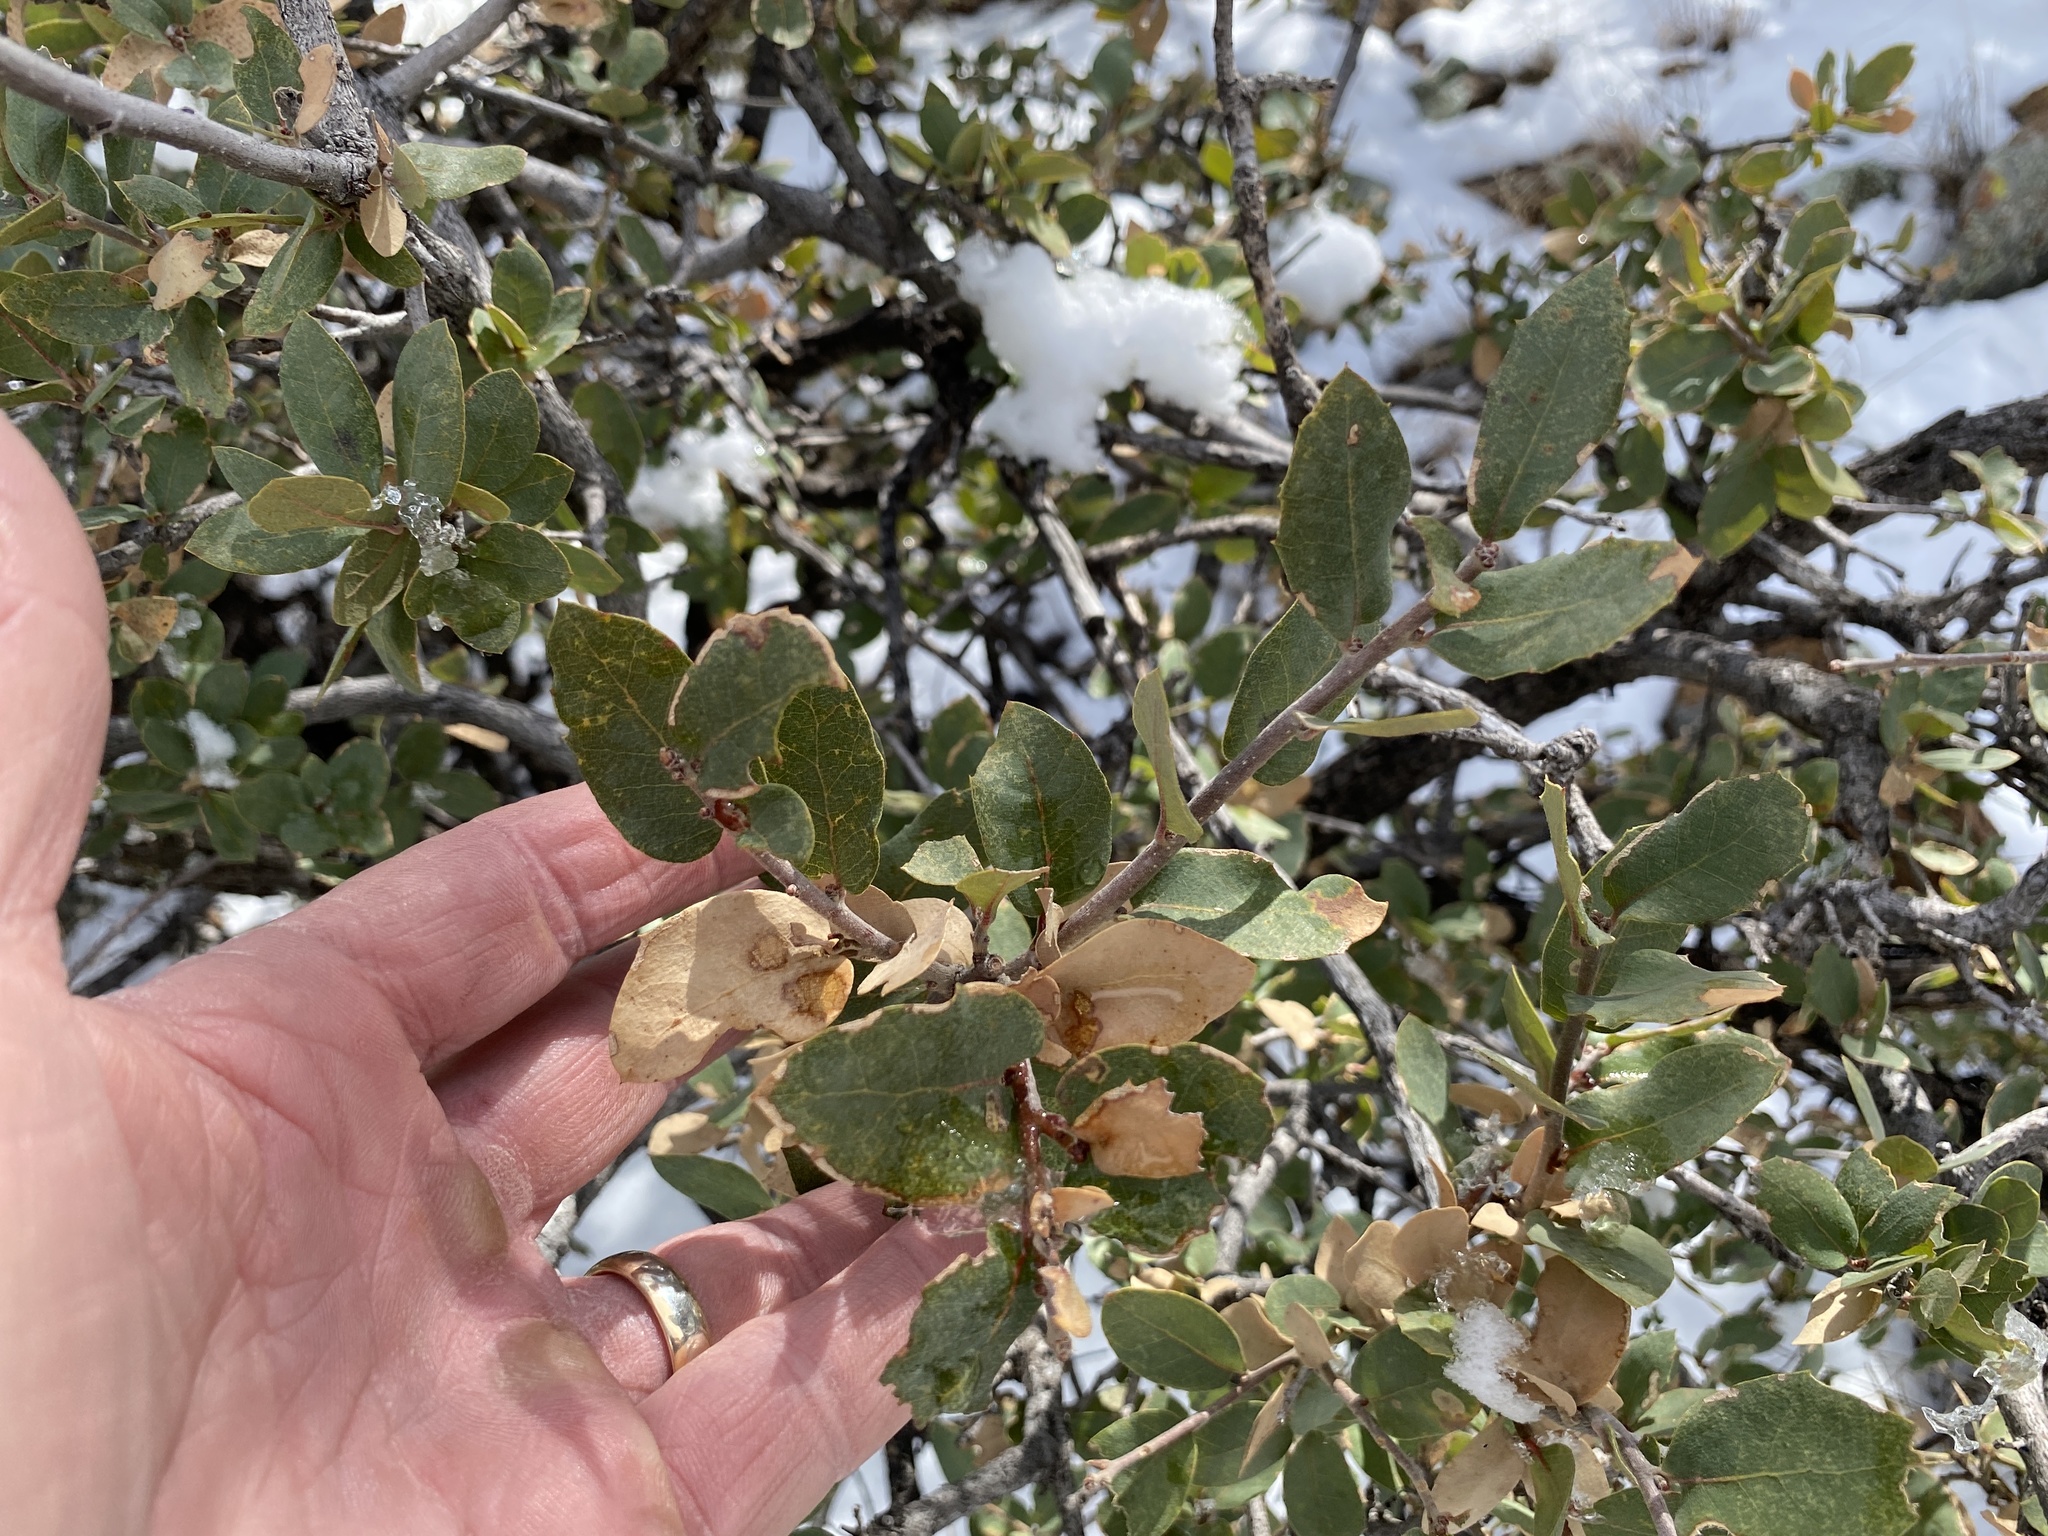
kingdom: Plantae
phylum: Tracheophyta
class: Magnoliopsida
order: Fagales
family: Fagaceae
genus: Quercus
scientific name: Quercus emoryi
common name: Emory oak
